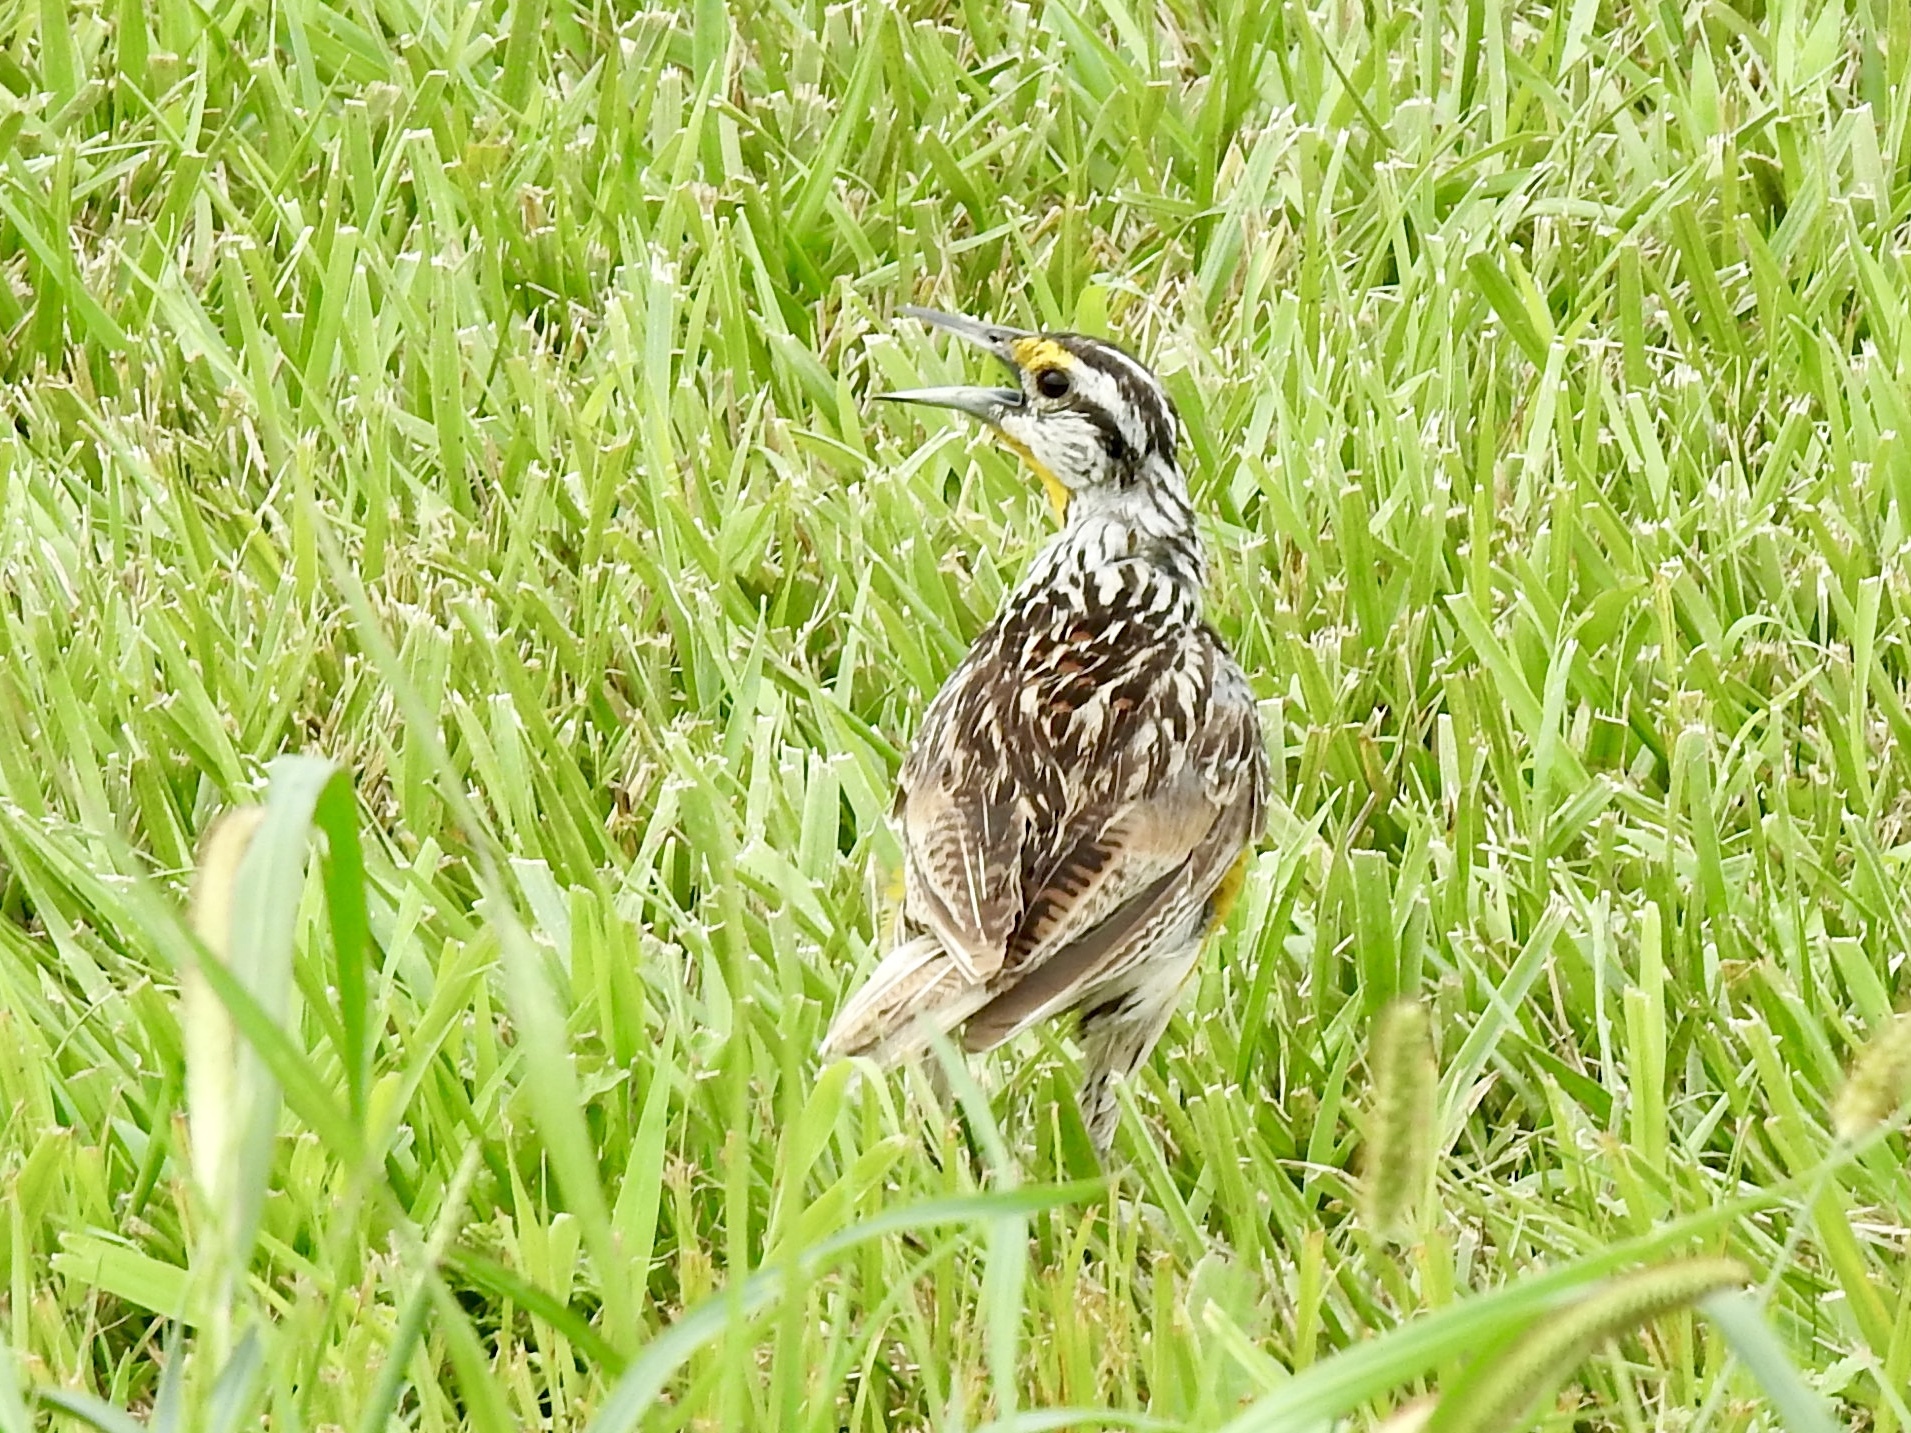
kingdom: Animalia
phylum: Chordata
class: Aves
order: Passeriformes
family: Icteridae
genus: Sturnella
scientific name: Sturnella magna
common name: Eastern meadowlark
